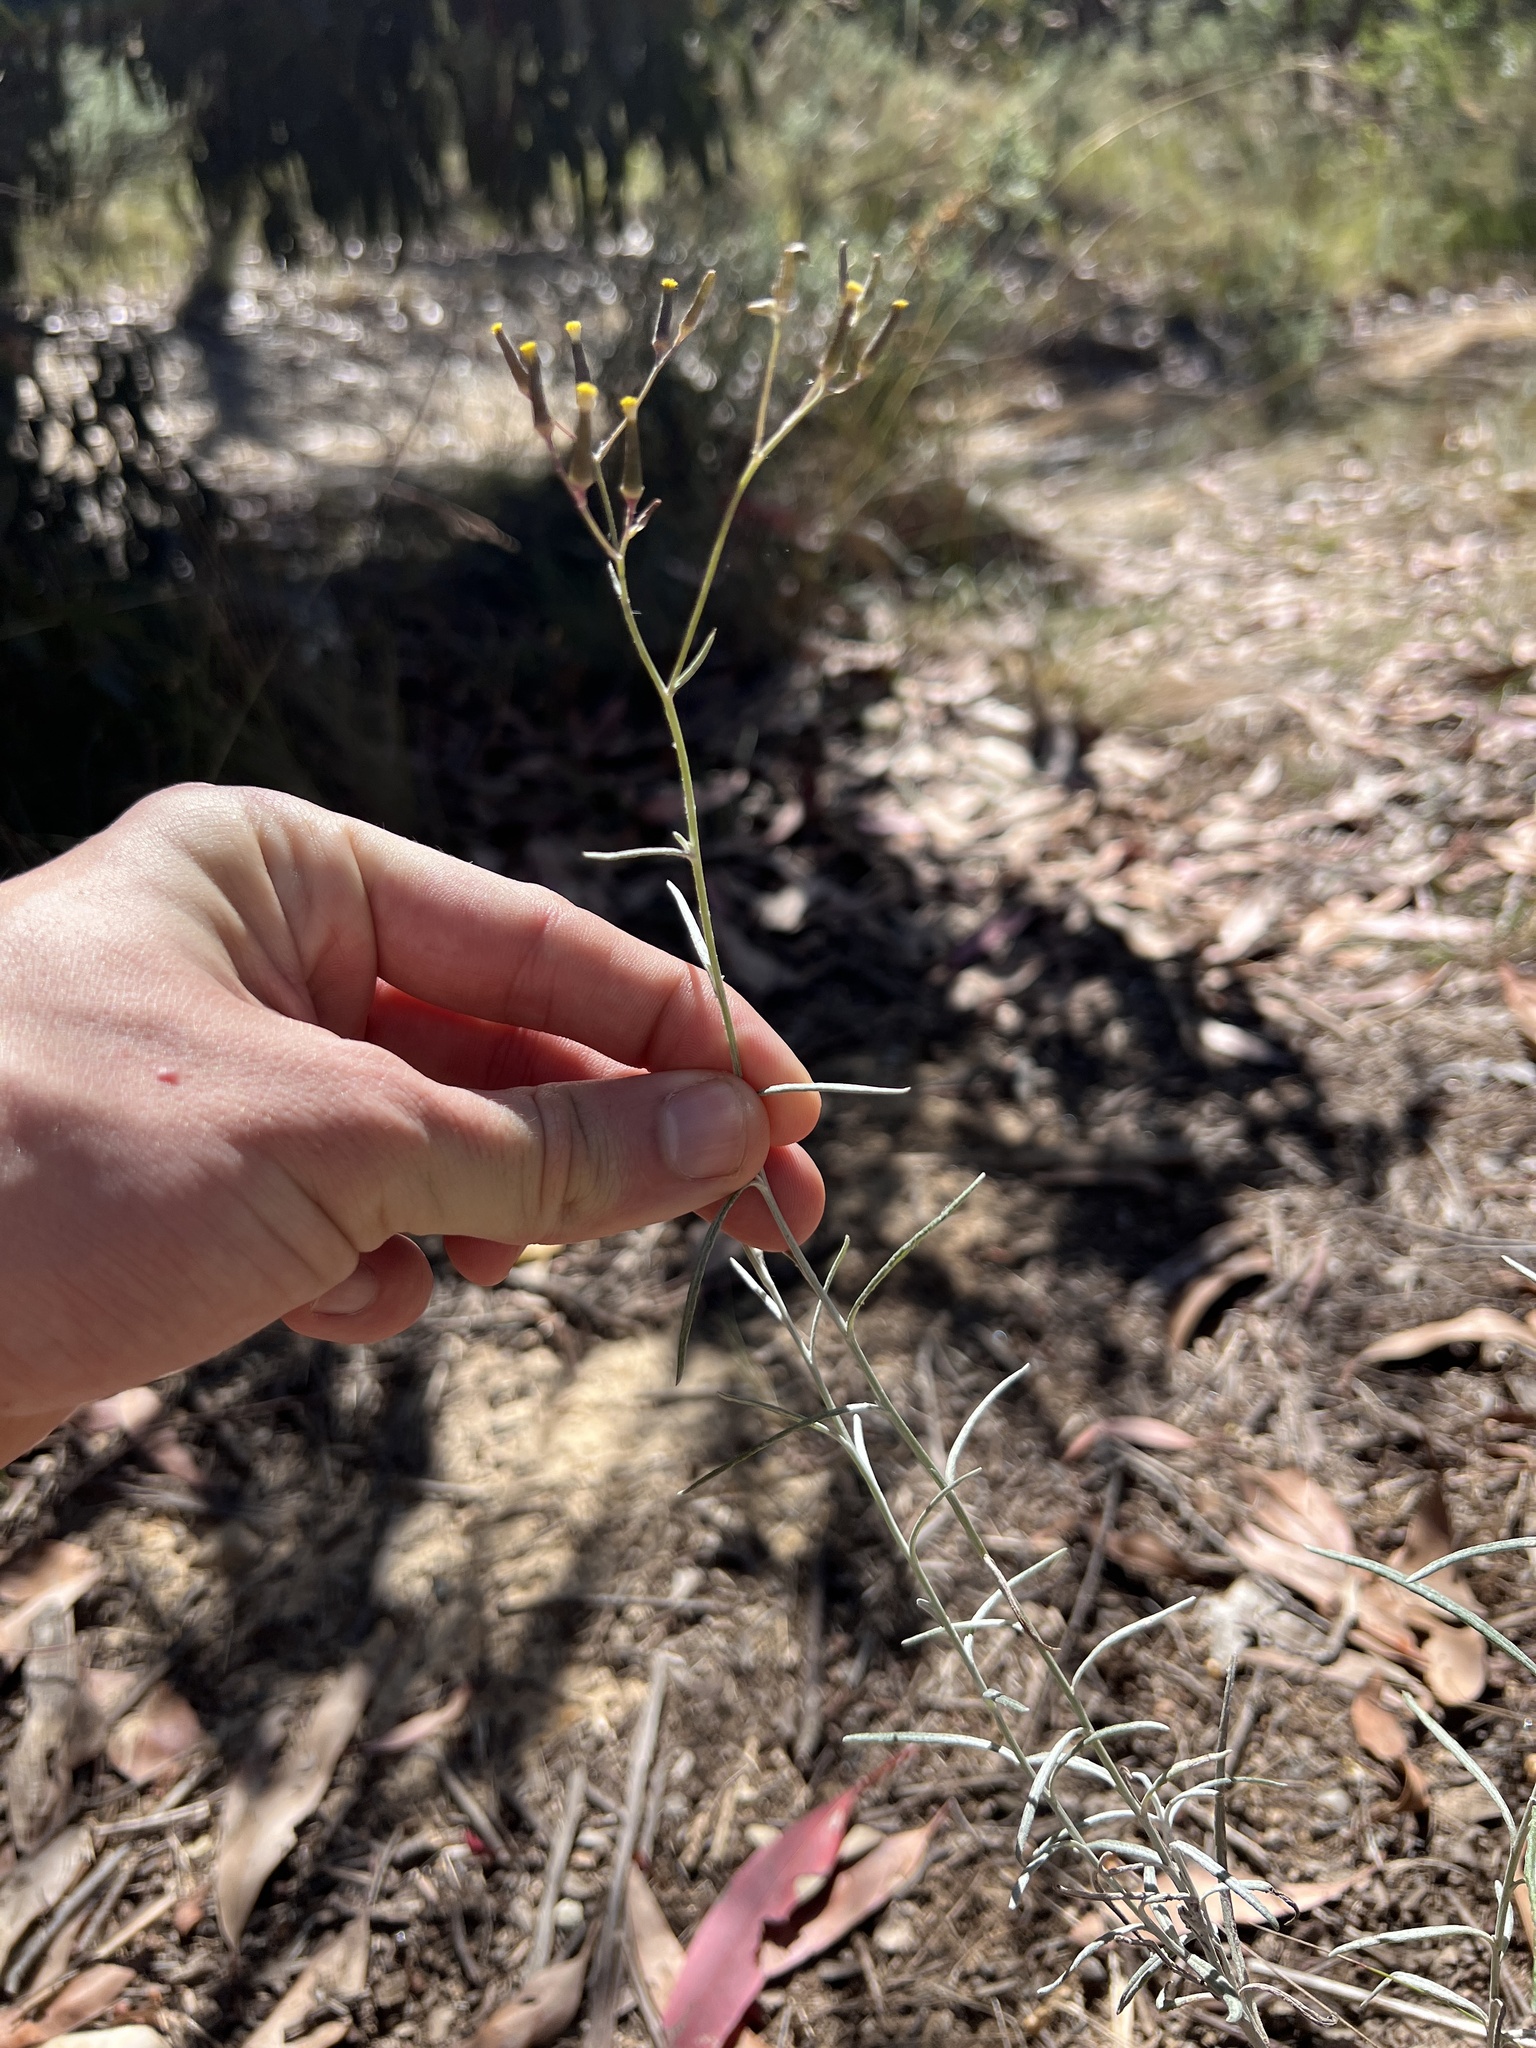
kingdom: Plantae
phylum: Tracheophyta
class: Magnoliopsida
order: Asterales
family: Asteraceae
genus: Senecio
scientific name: Senecio quadridentatus
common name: Cotton fireweed
